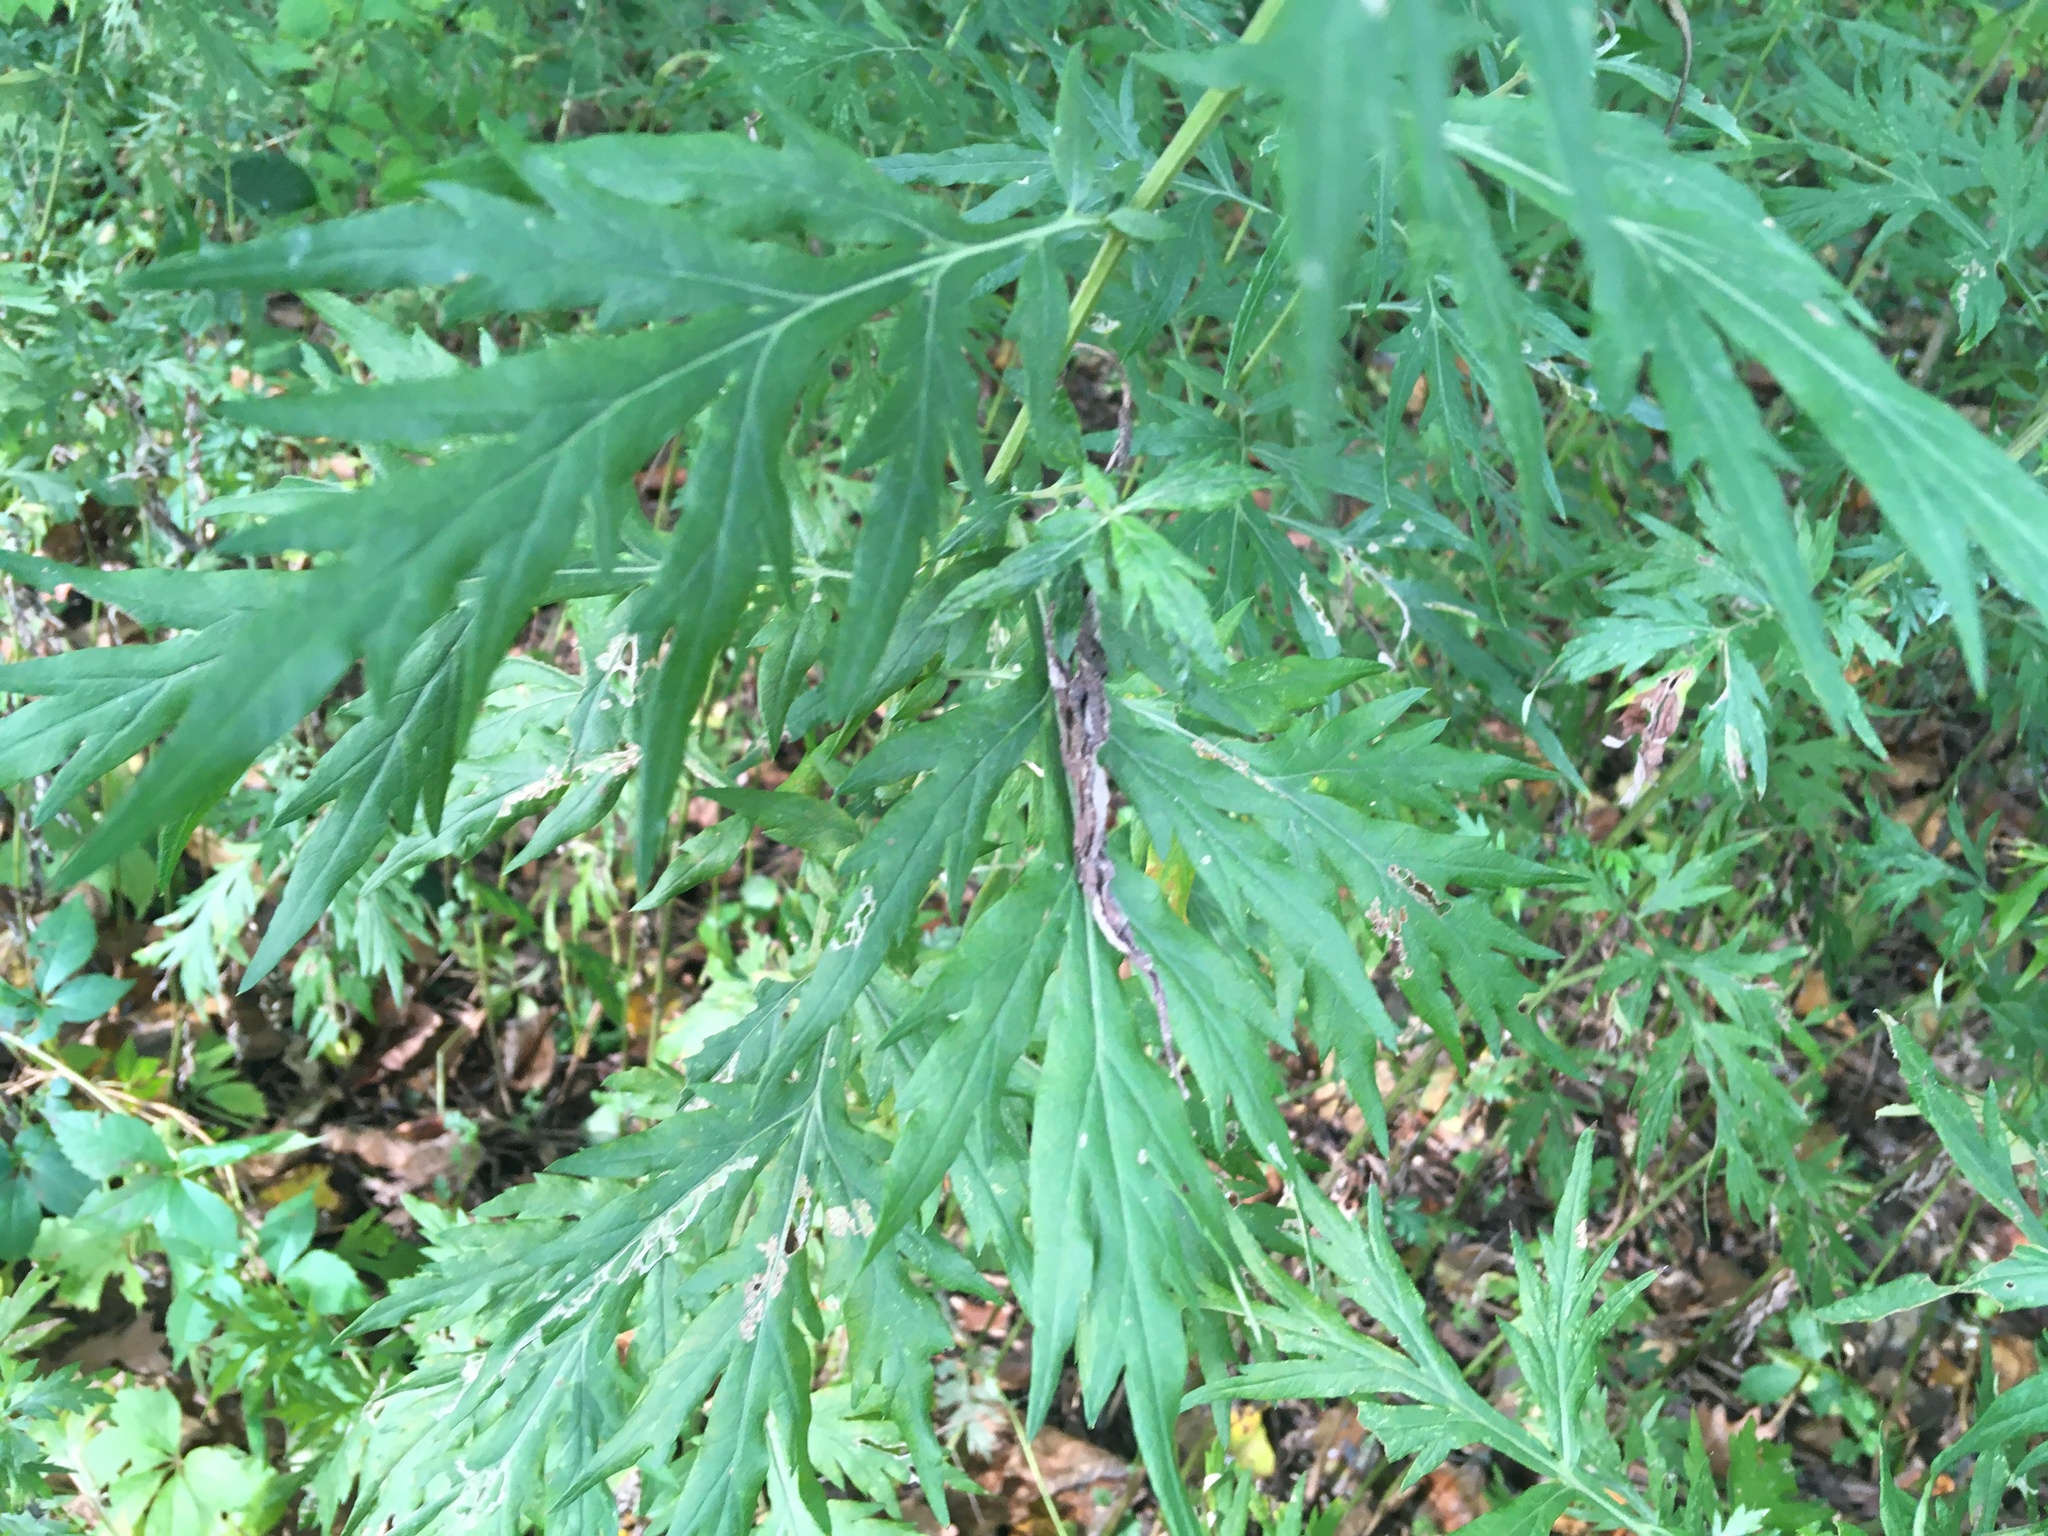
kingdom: Plantae
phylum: Tracheophyta
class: Magnoliopsida
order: Asterales
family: Asteraceae
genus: Artemisia
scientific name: Artemisia vulgaris
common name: Mugwort
